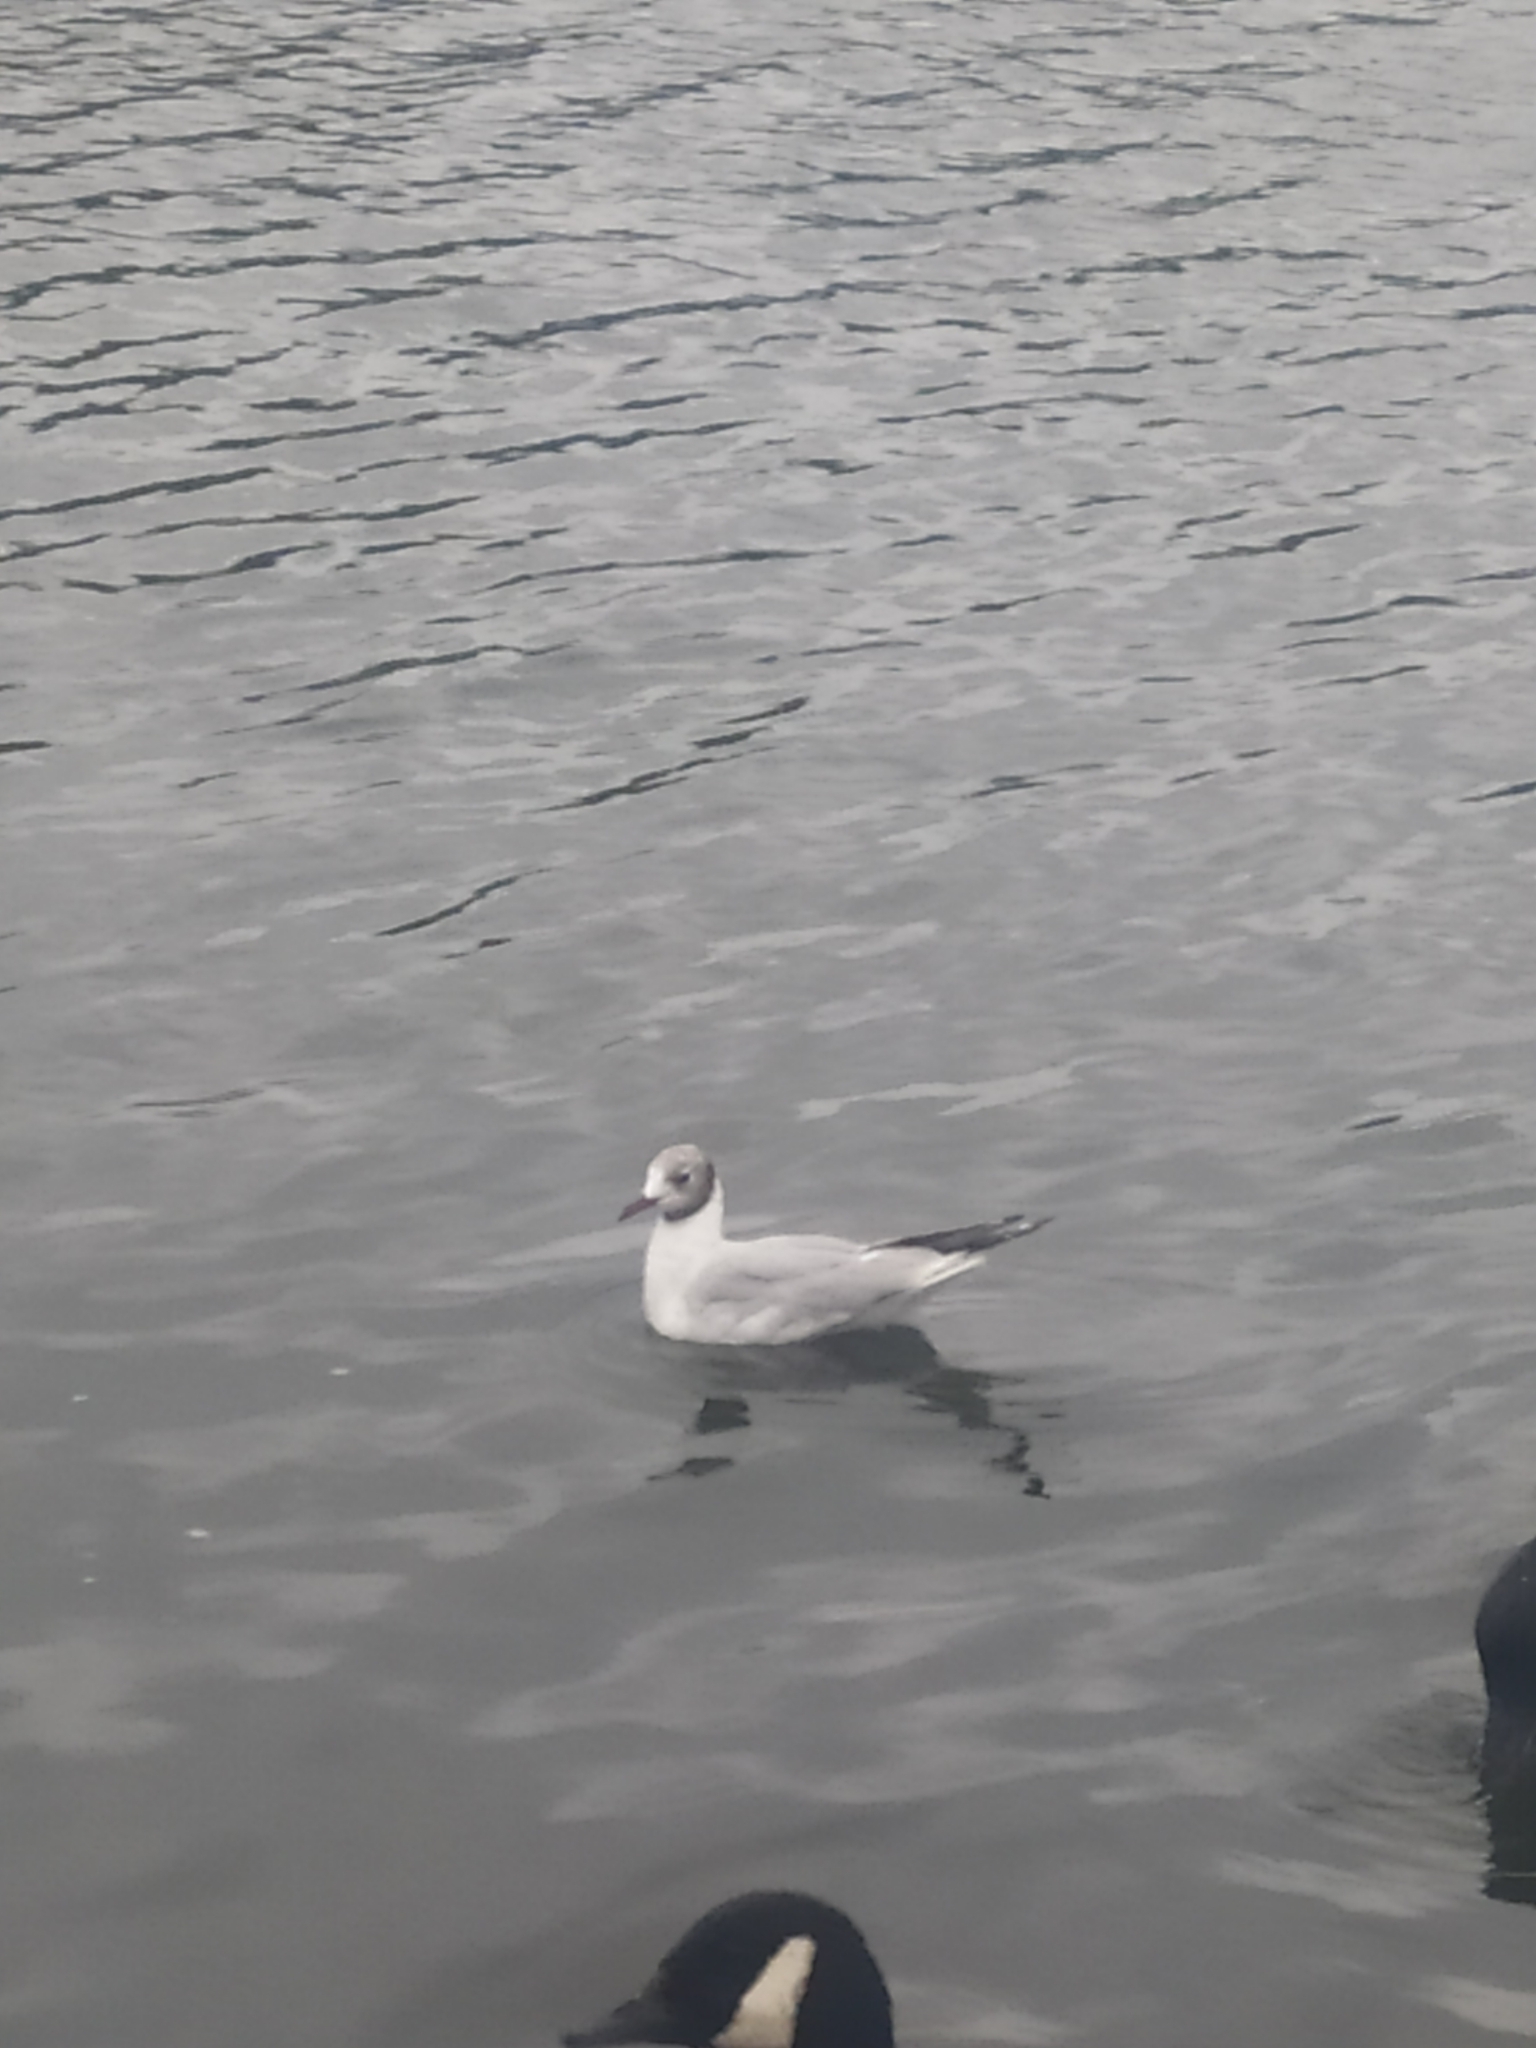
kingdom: Animalia
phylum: Chordata
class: Aves
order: Charadriiformes
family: Laridae
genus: Chroicocephalus
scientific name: Chroicocephalus ridibundus
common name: Black-headed gull
